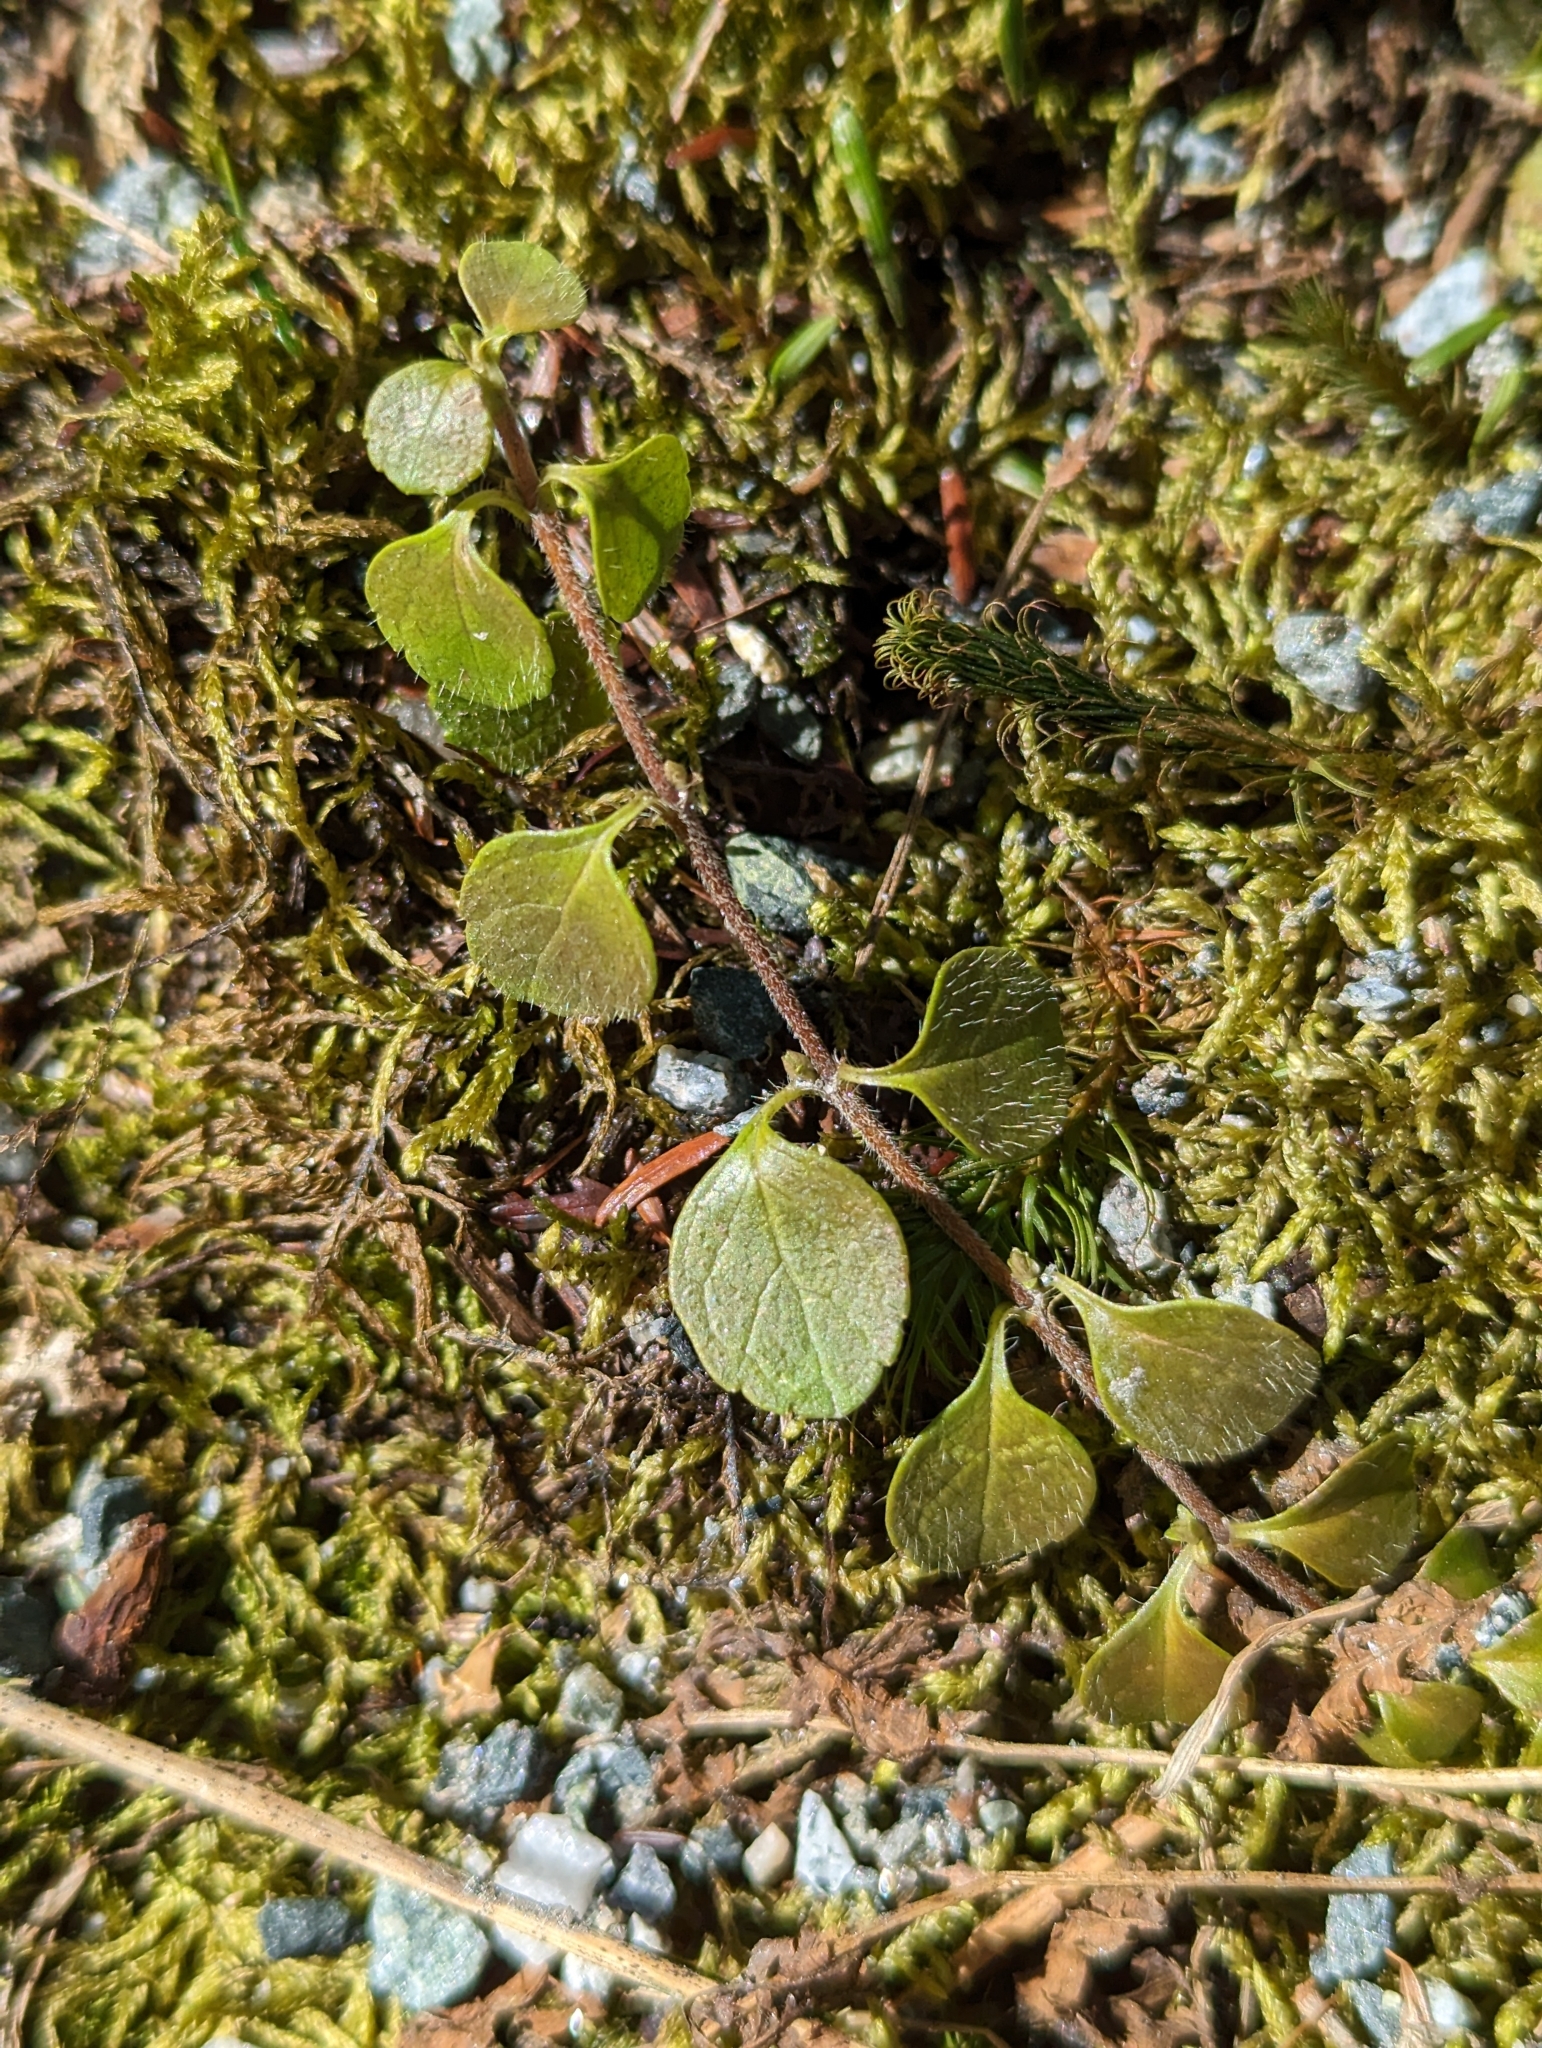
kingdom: Plantae
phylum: Tracheophyta
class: Magnoliopsida
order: Dipsacales
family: Caprifoliaceae
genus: Linnaea
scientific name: Linnaea borealis
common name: Twinflower
